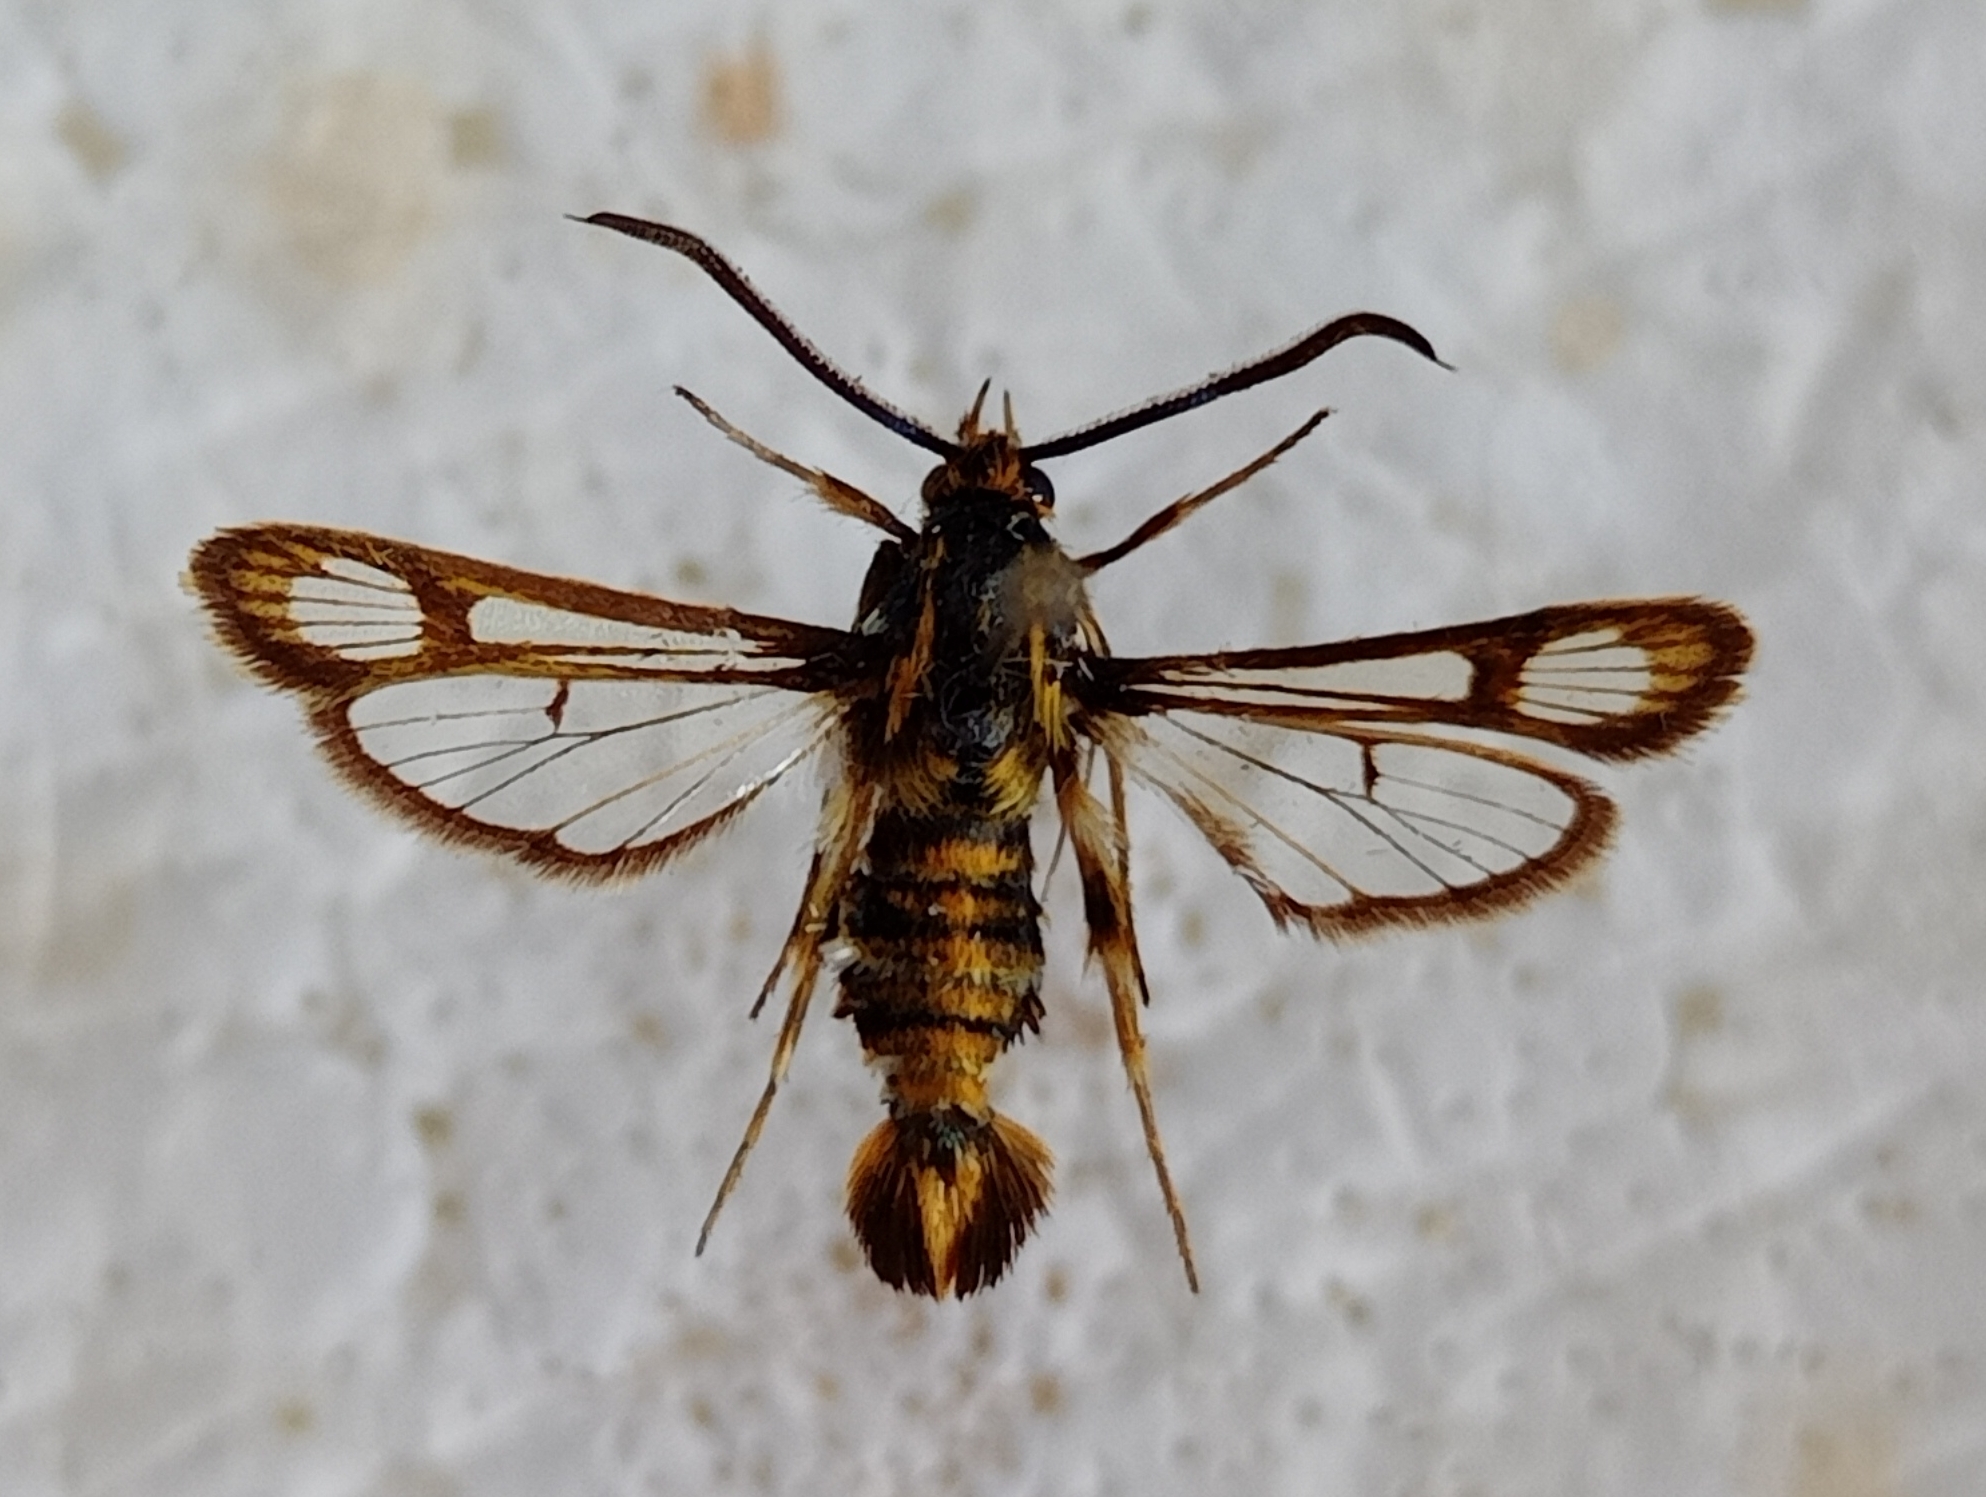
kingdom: Animalia
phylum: Arthropoda
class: Insecta
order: Lepidoptera
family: Sesiidae
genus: Chamaesphecia
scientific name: Chamaesphecia dumonti
